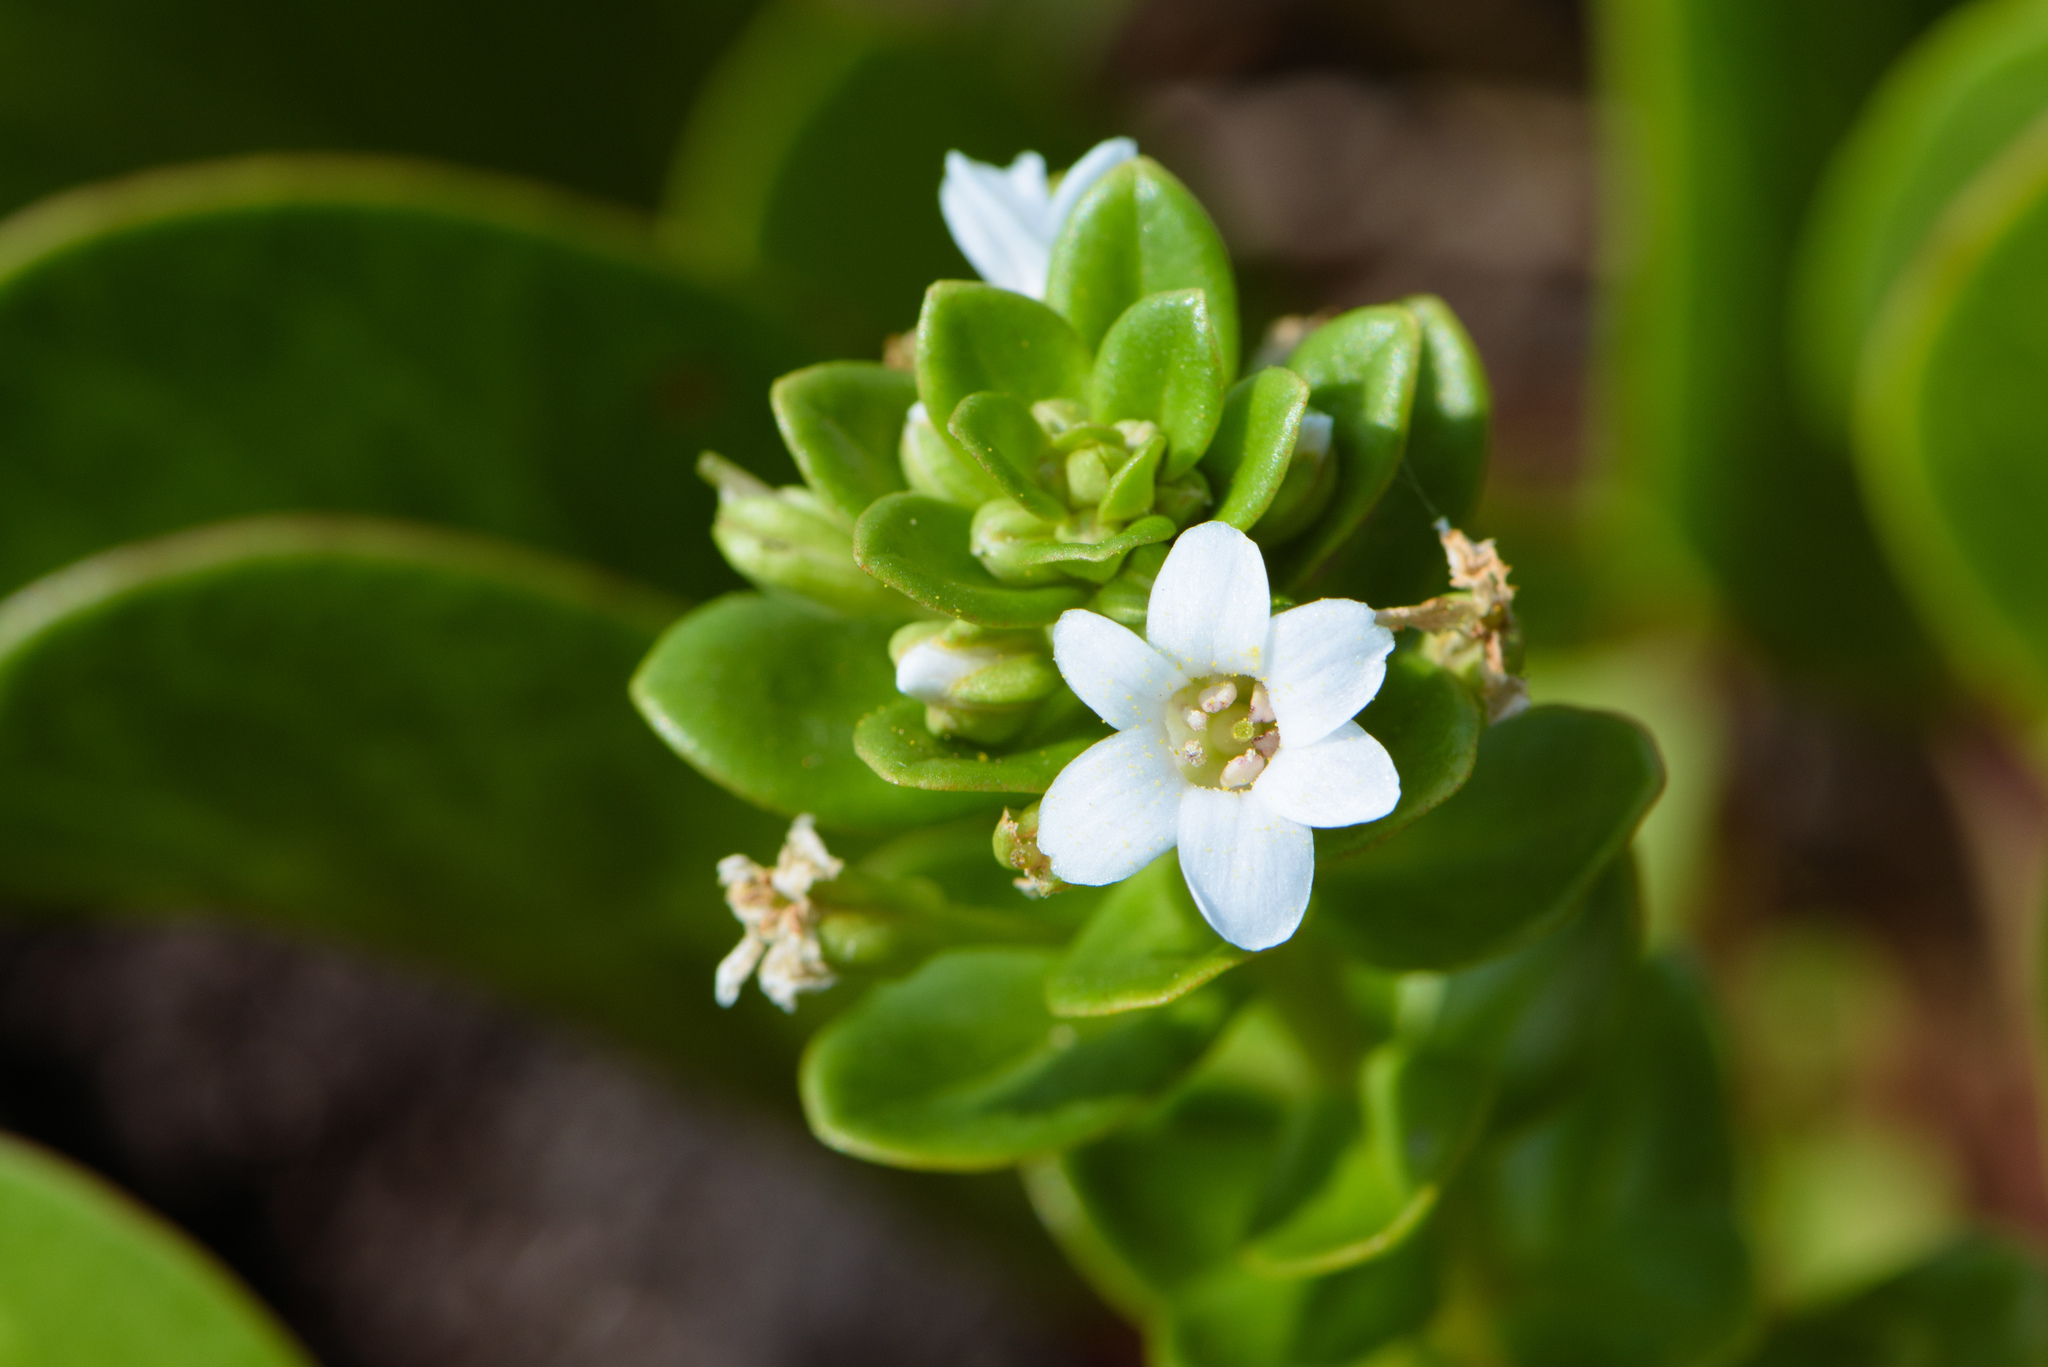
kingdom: Plantae
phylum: Tracheophyta
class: Magnoliopsida
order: Ericales
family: Primulaceae
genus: Lysimachia
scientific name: Lysimachia mauritiana
